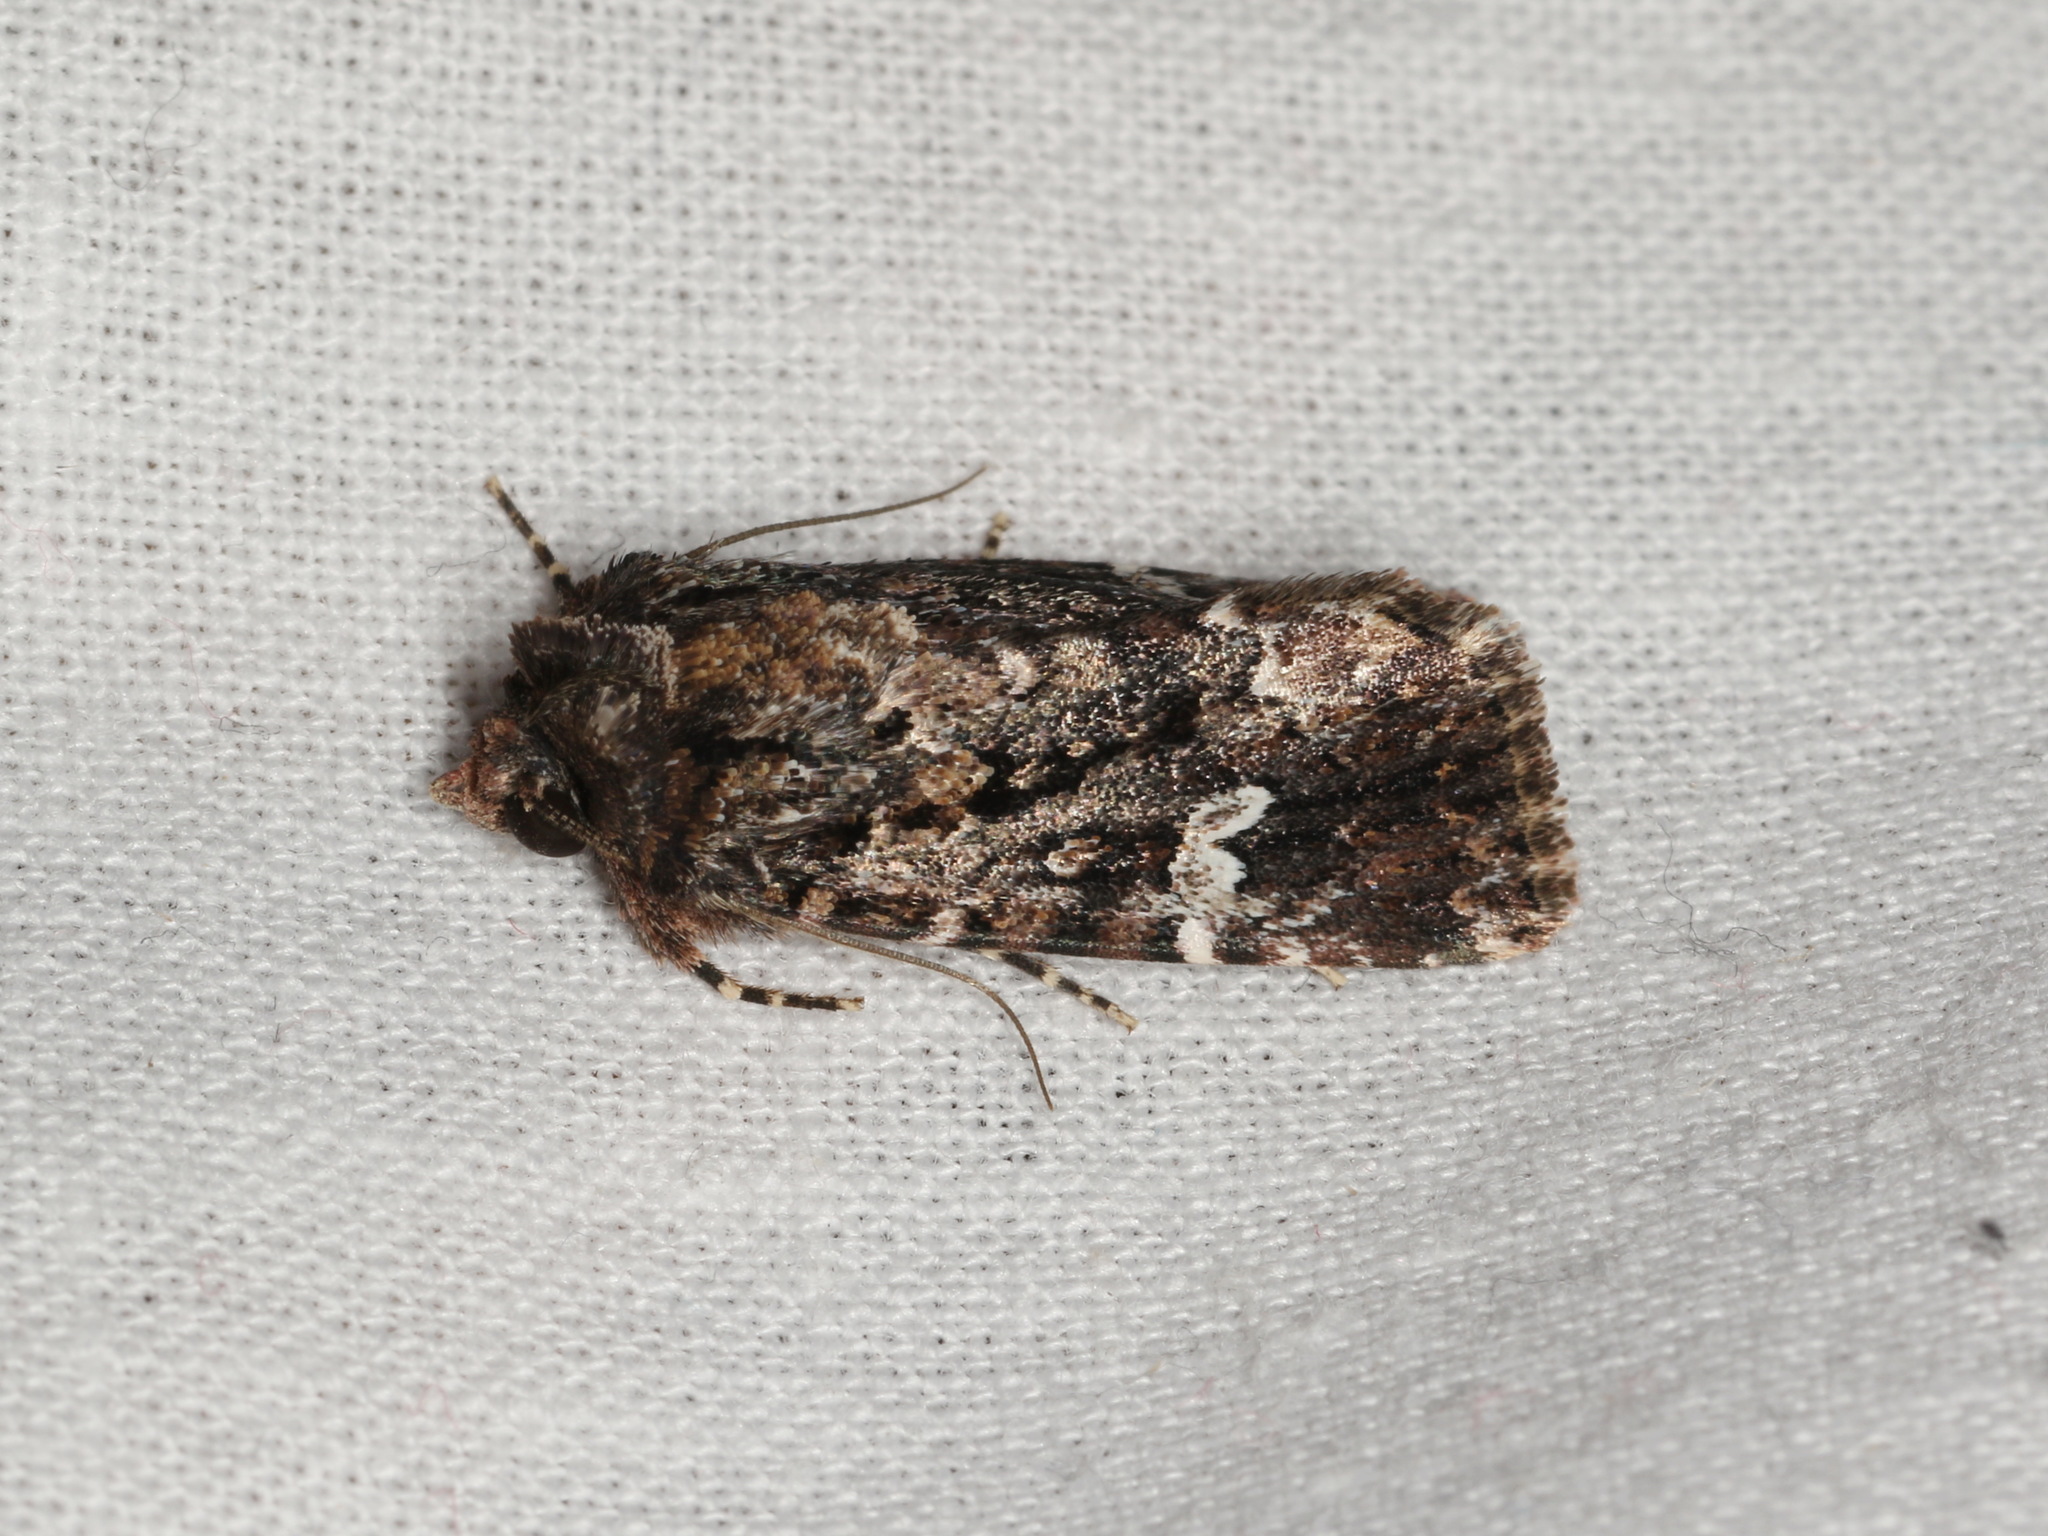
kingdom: Animalia
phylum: Arthropoda
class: Insecta
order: Lepidoptera
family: Noctuidae
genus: Ectopatria
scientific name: Ectopatria horologa
